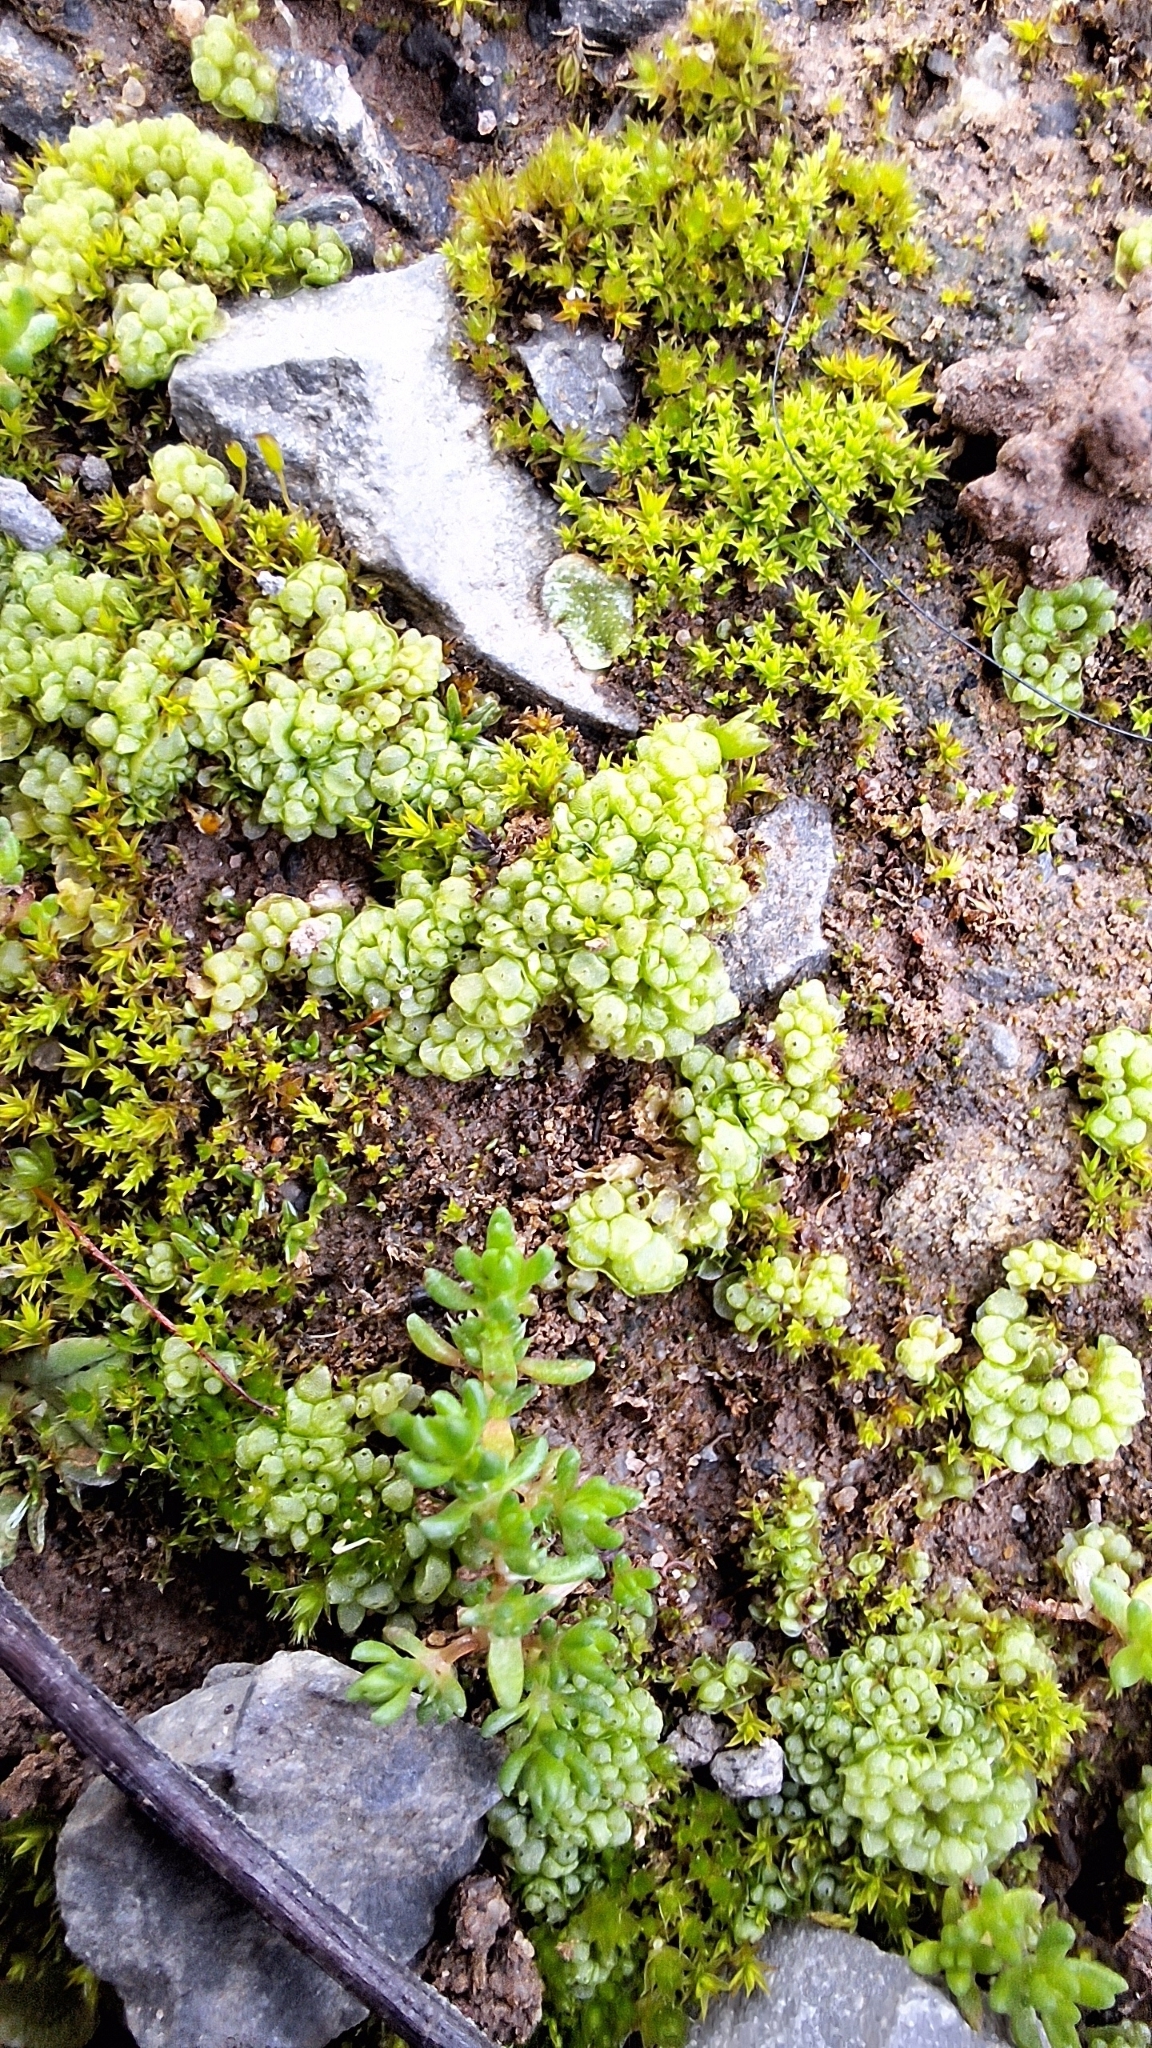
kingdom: Plantae
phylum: Marchantiophyta
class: Marchantiopsida
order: Sphaerocarpales
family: Sphaerocarpaceae
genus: Sphaerocarpos
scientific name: Sphaerocarpos texanus
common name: Texas balloonwort
